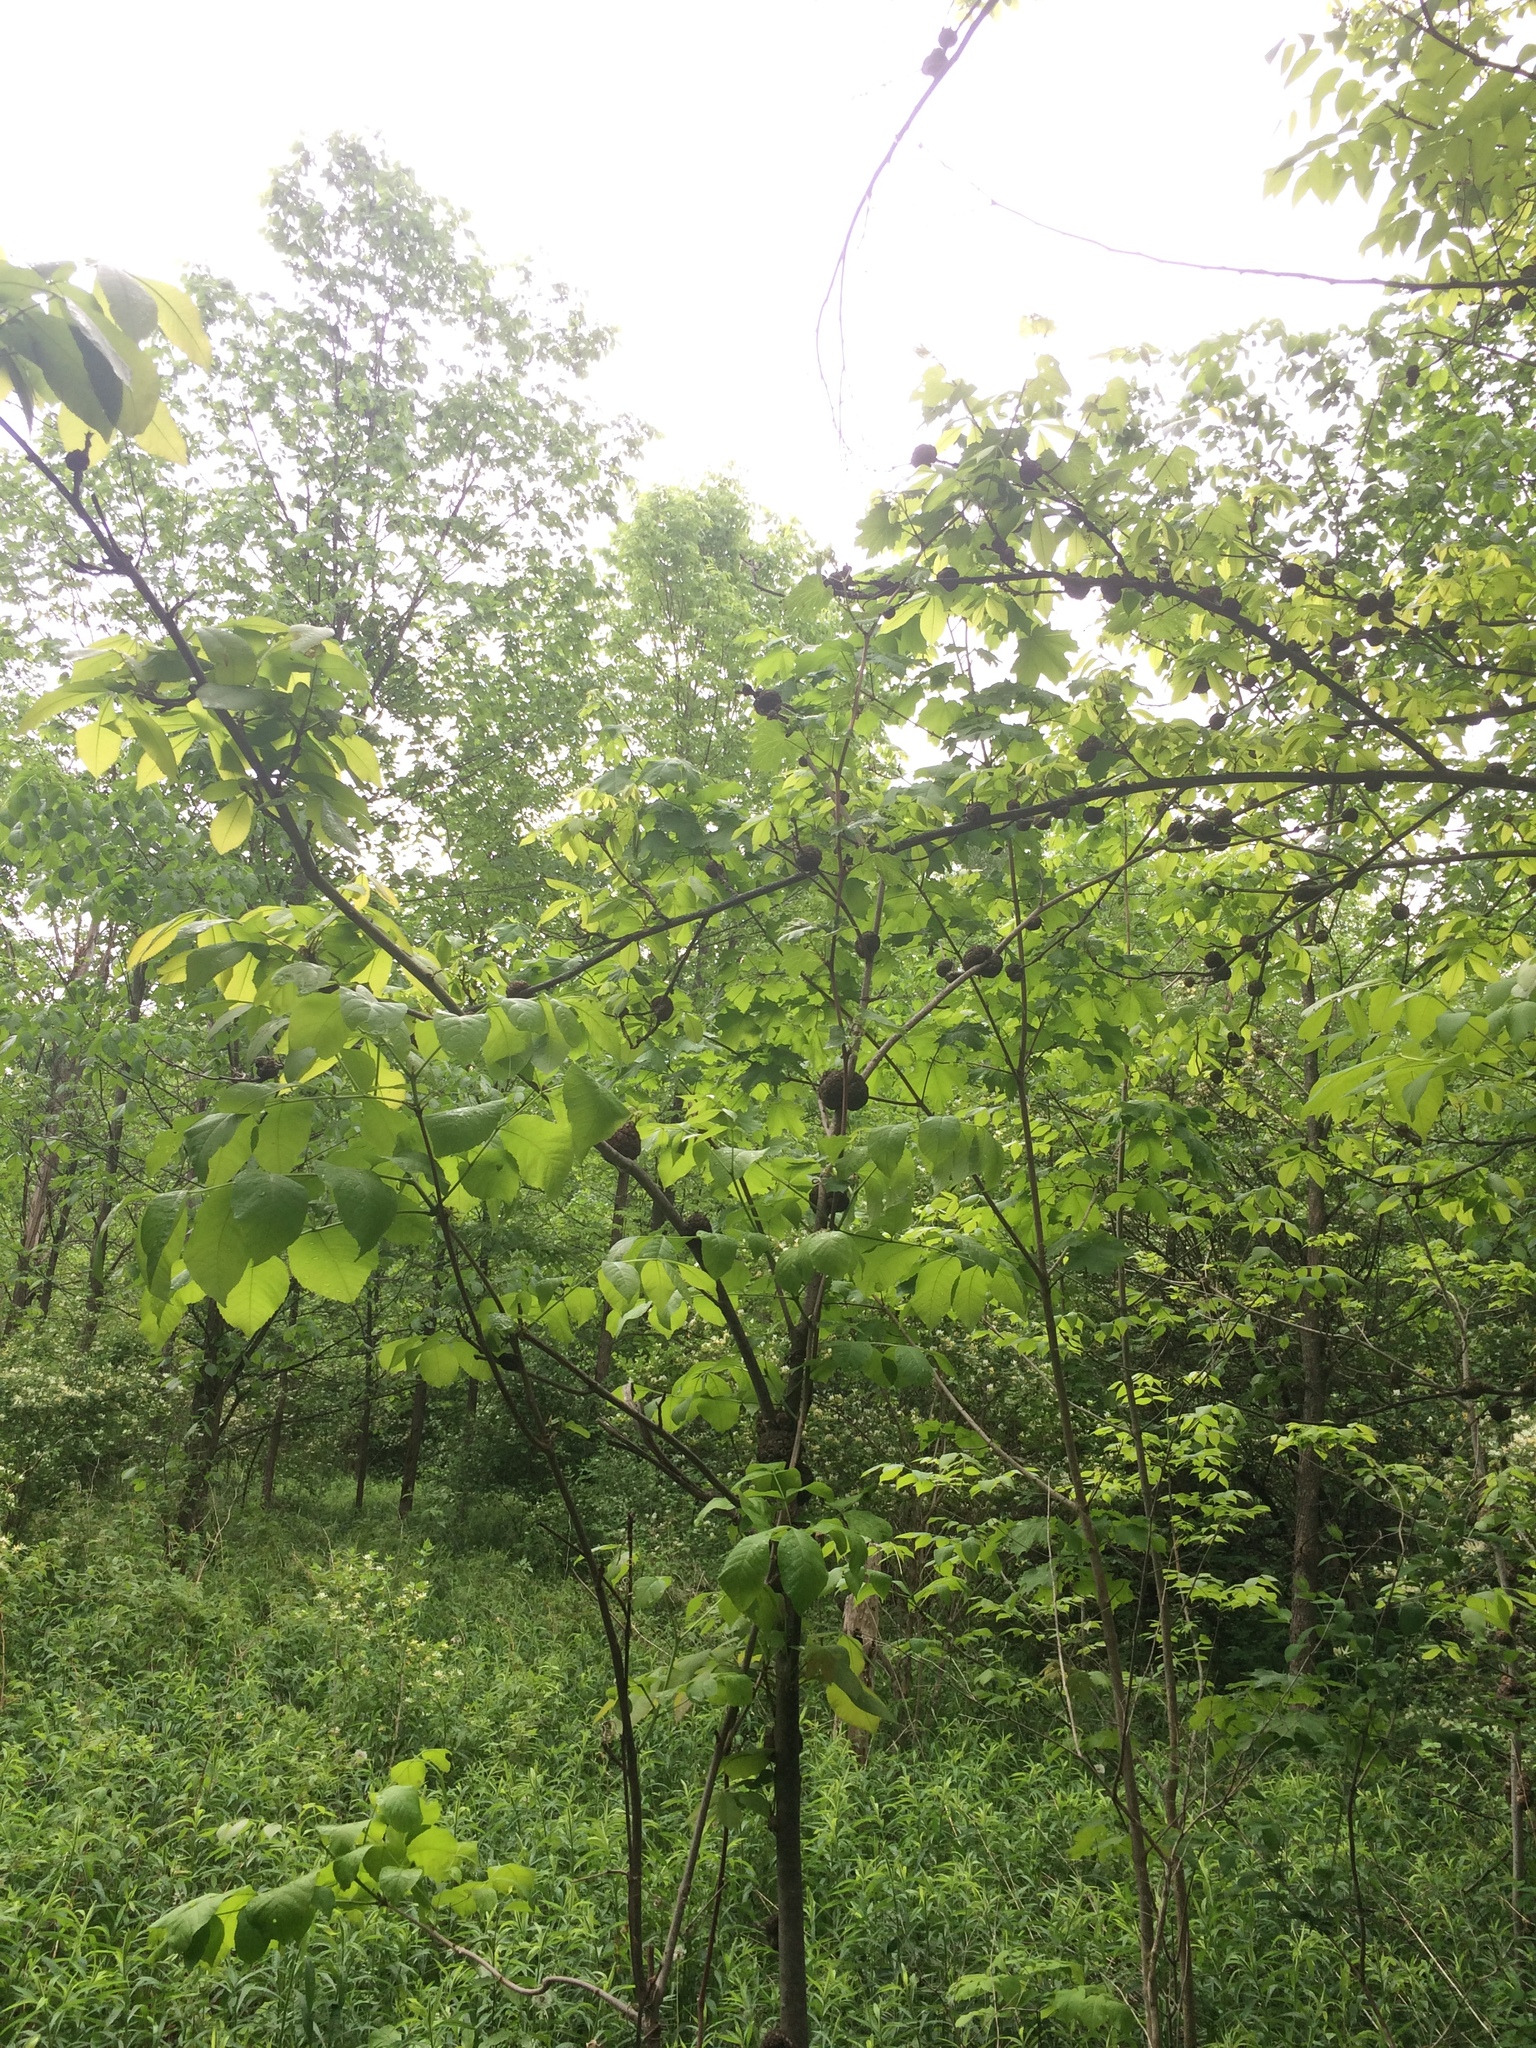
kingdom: Plantae
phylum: Tracheophyta
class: Magnoliopsida
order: Fagales
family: Juglandaceae
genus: Carya
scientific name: Carya cordiformis
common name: Bitternut hickory
